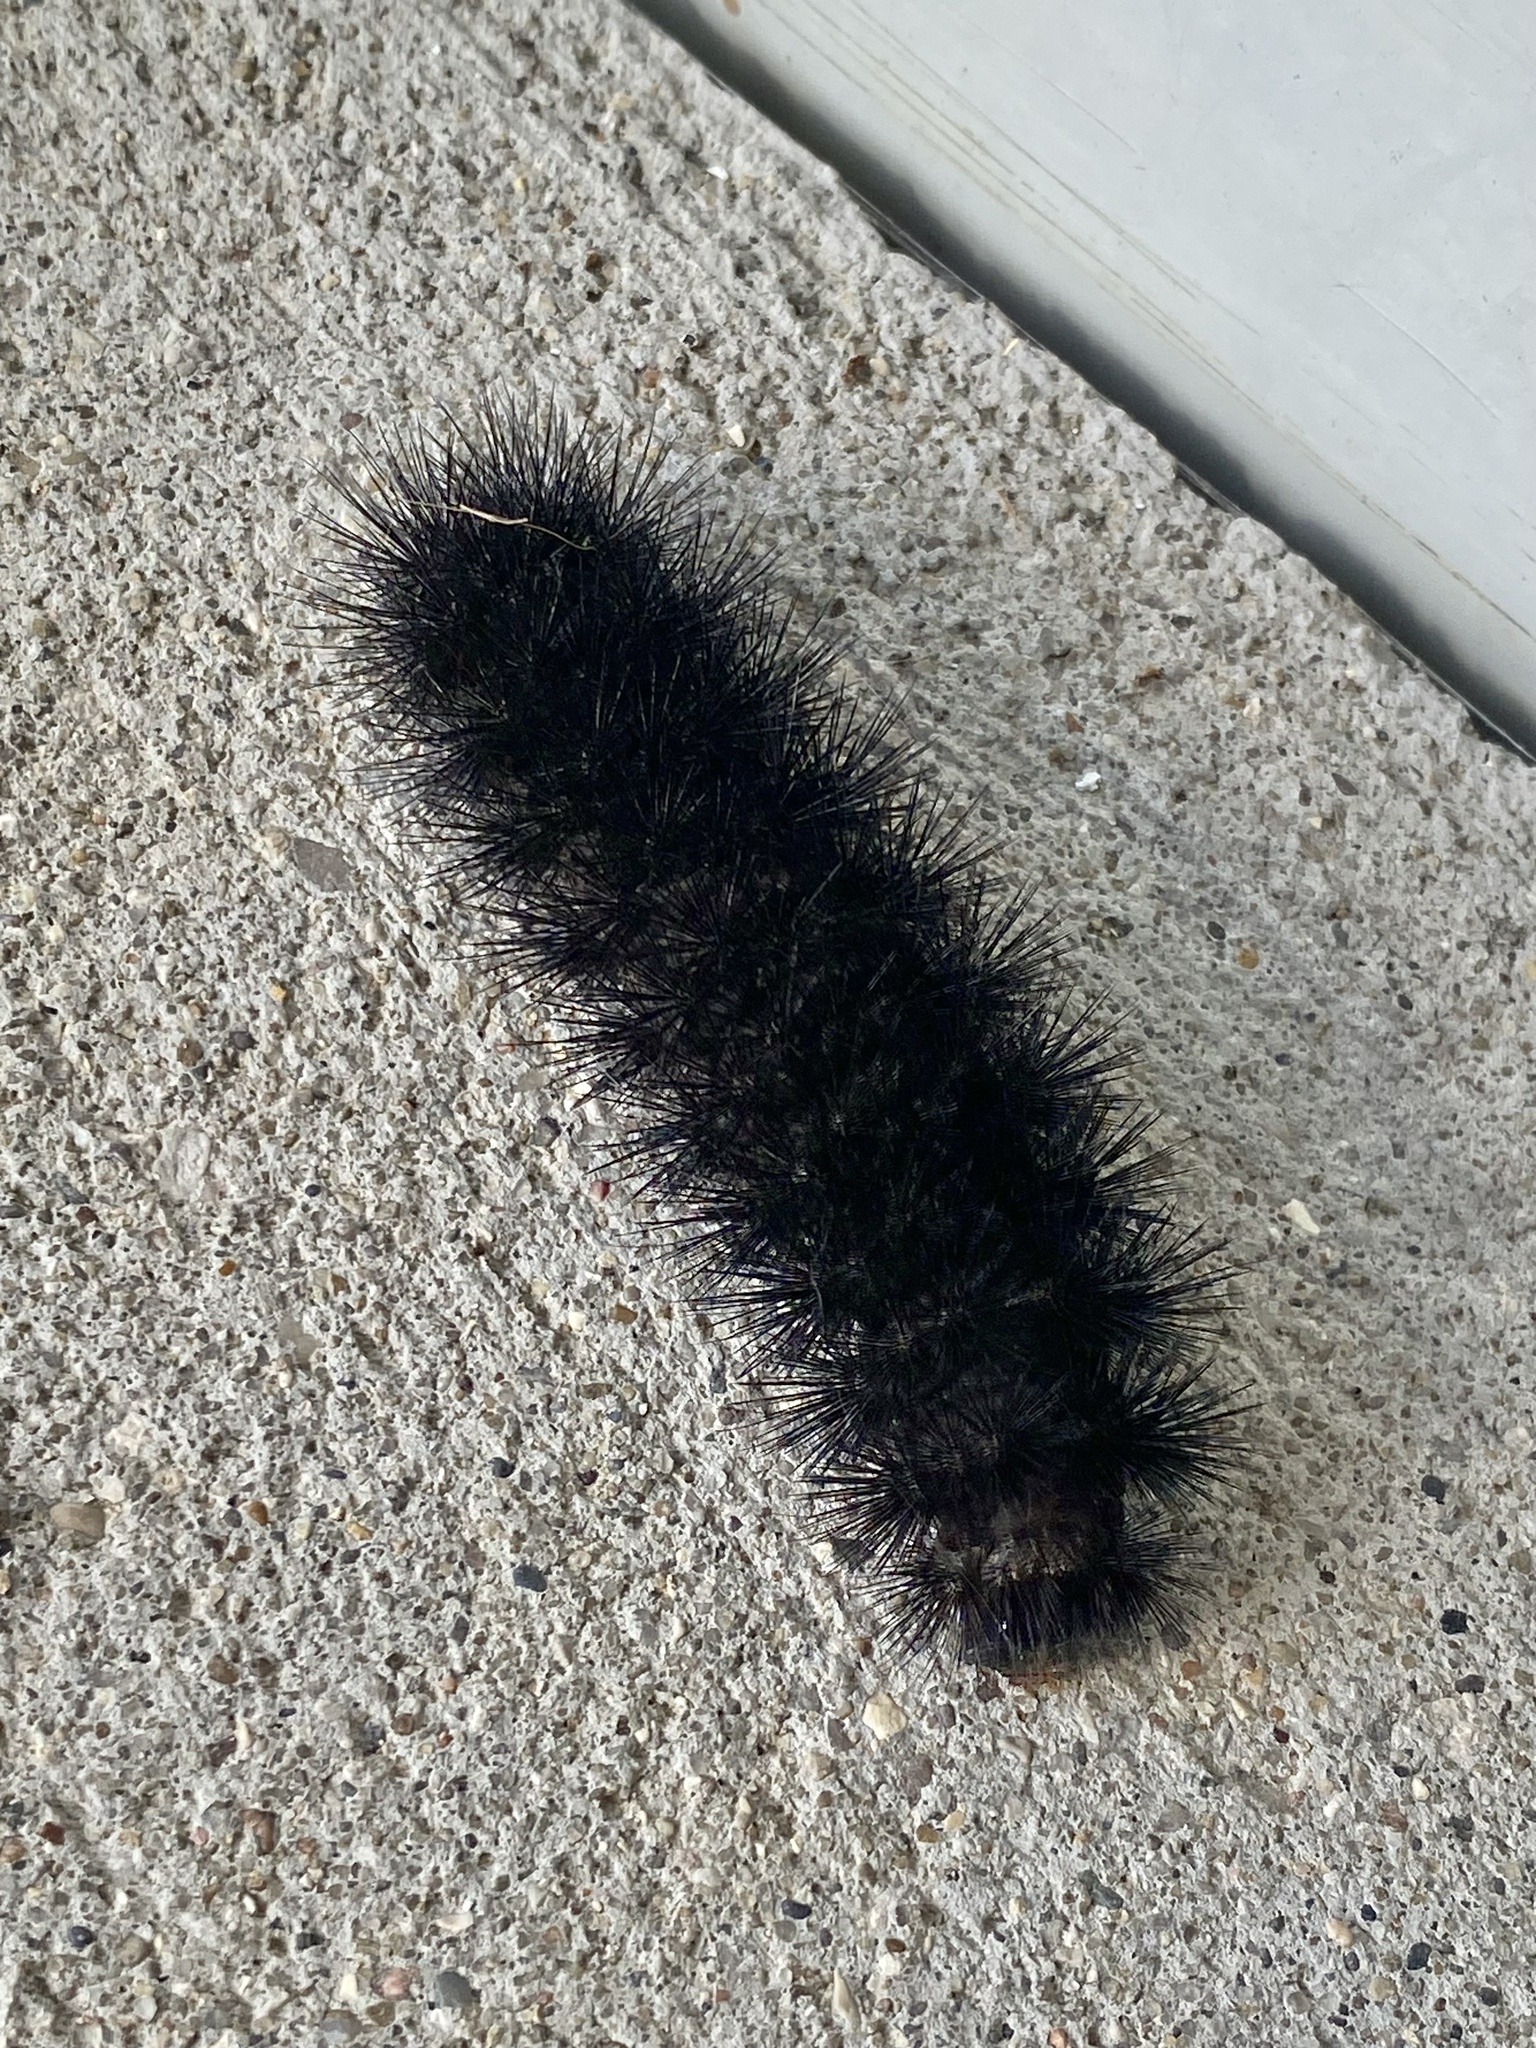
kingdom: Animalia
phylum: Arthropoda
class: Insecta
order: Lepidoptera
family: Erebidae
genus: Hypercompe
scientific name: Hypercompe scribonia
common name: Giant leopard moth
